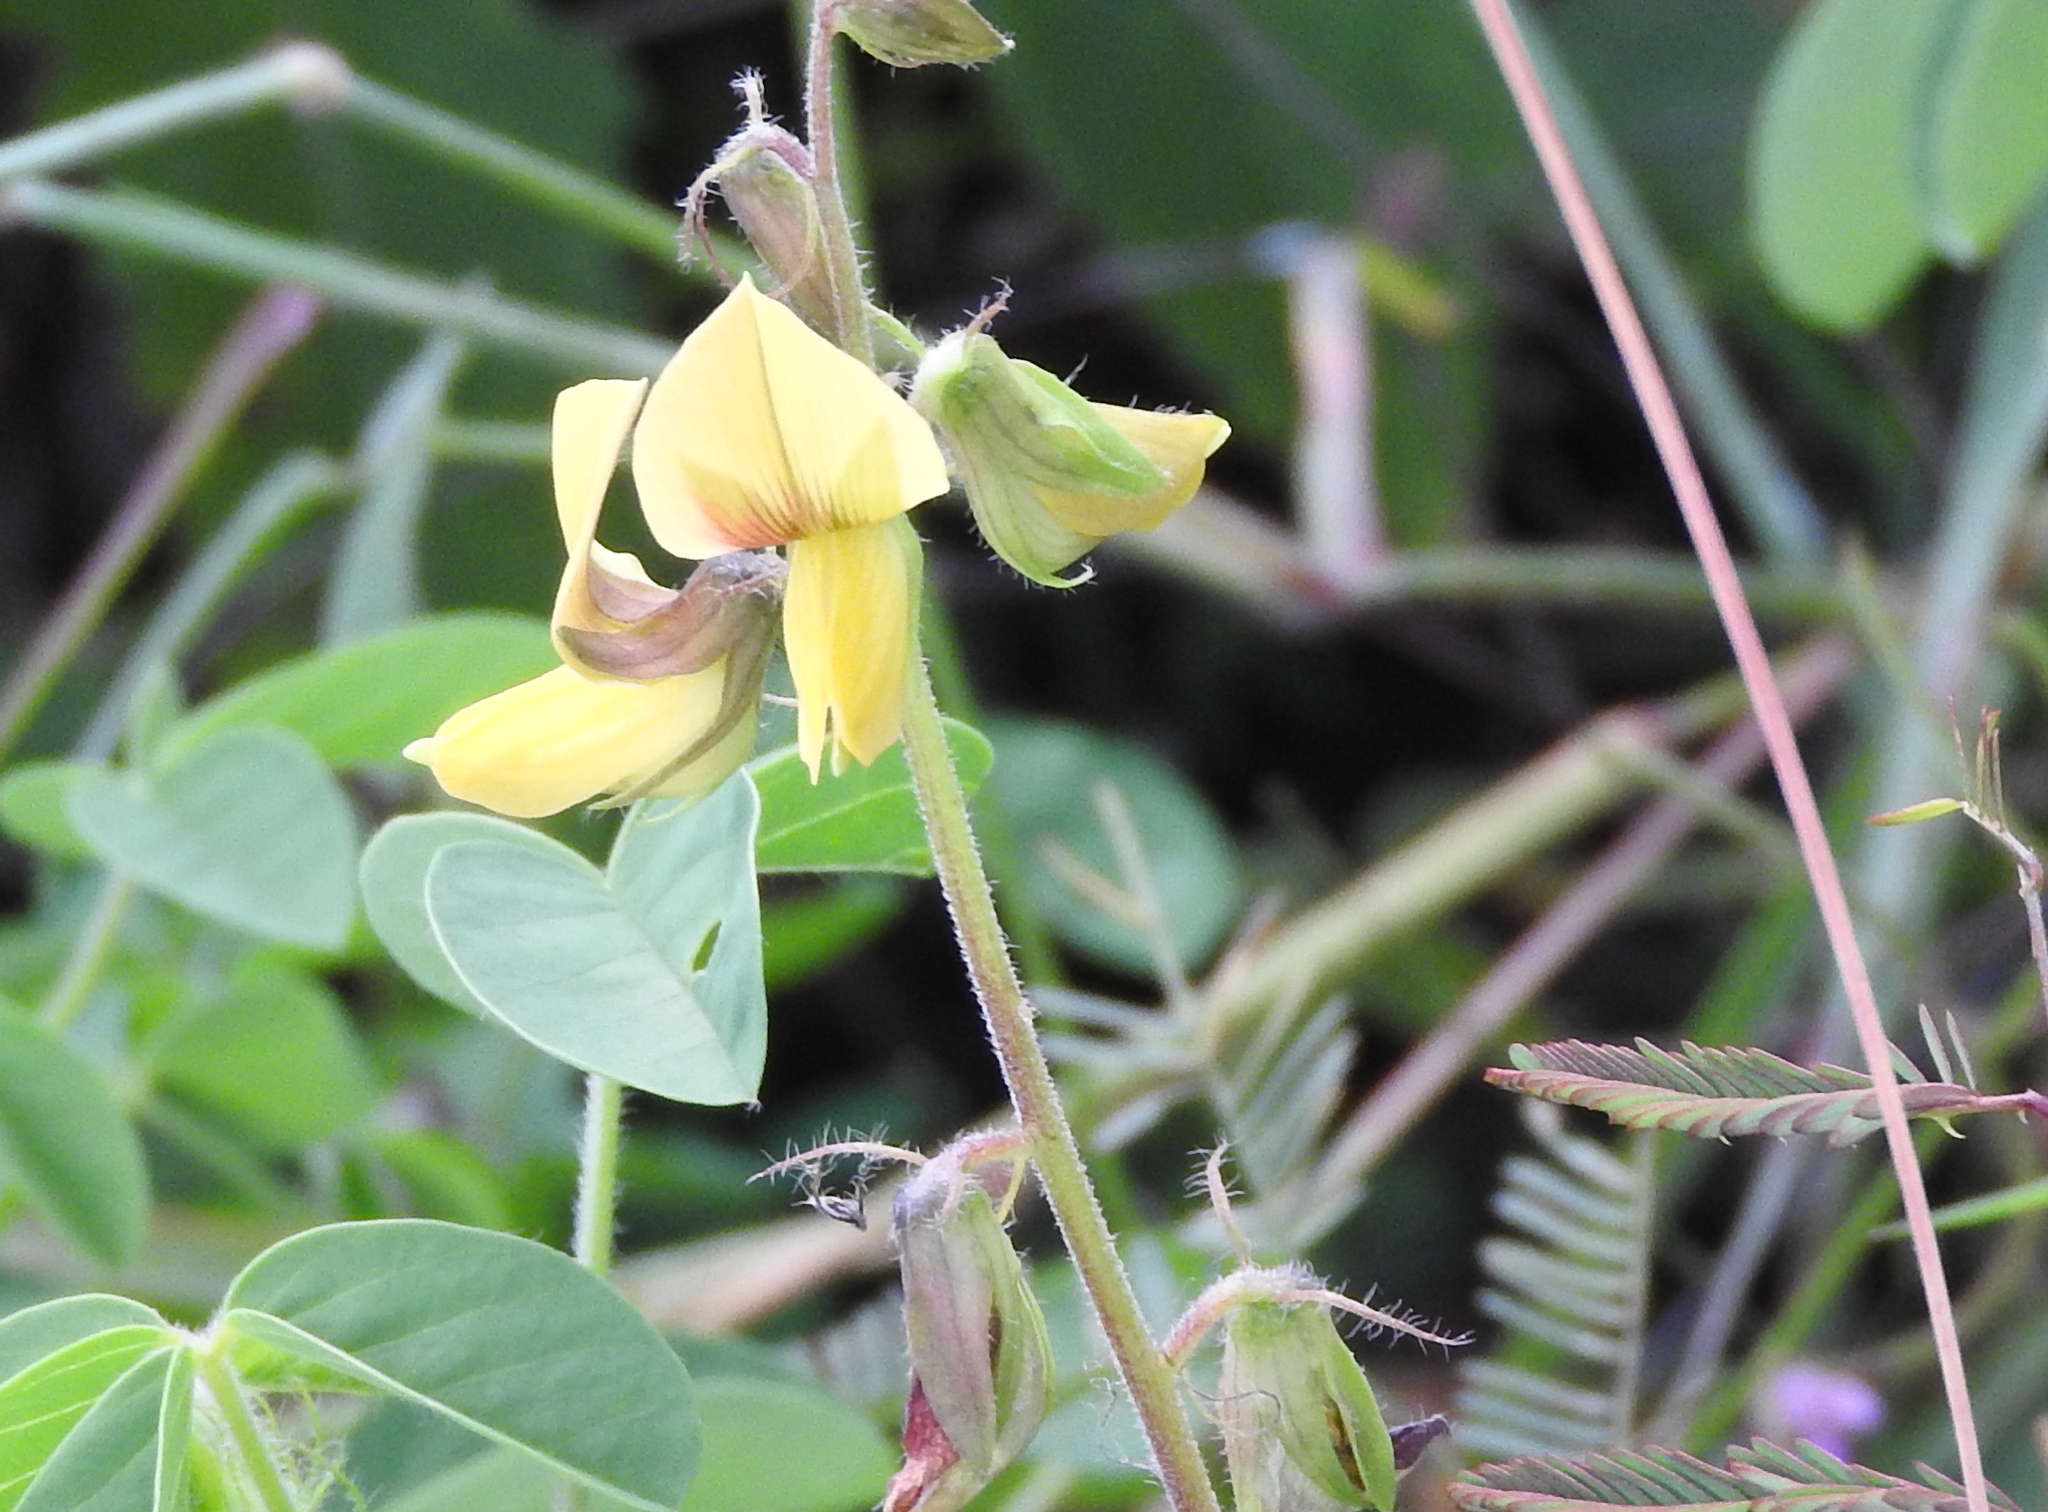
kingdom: Plantae
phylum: Tracheophyta
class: Magnoliopsida
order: Fabales
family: Fabaceae
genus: Crotalaria
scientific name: Crotalaria
